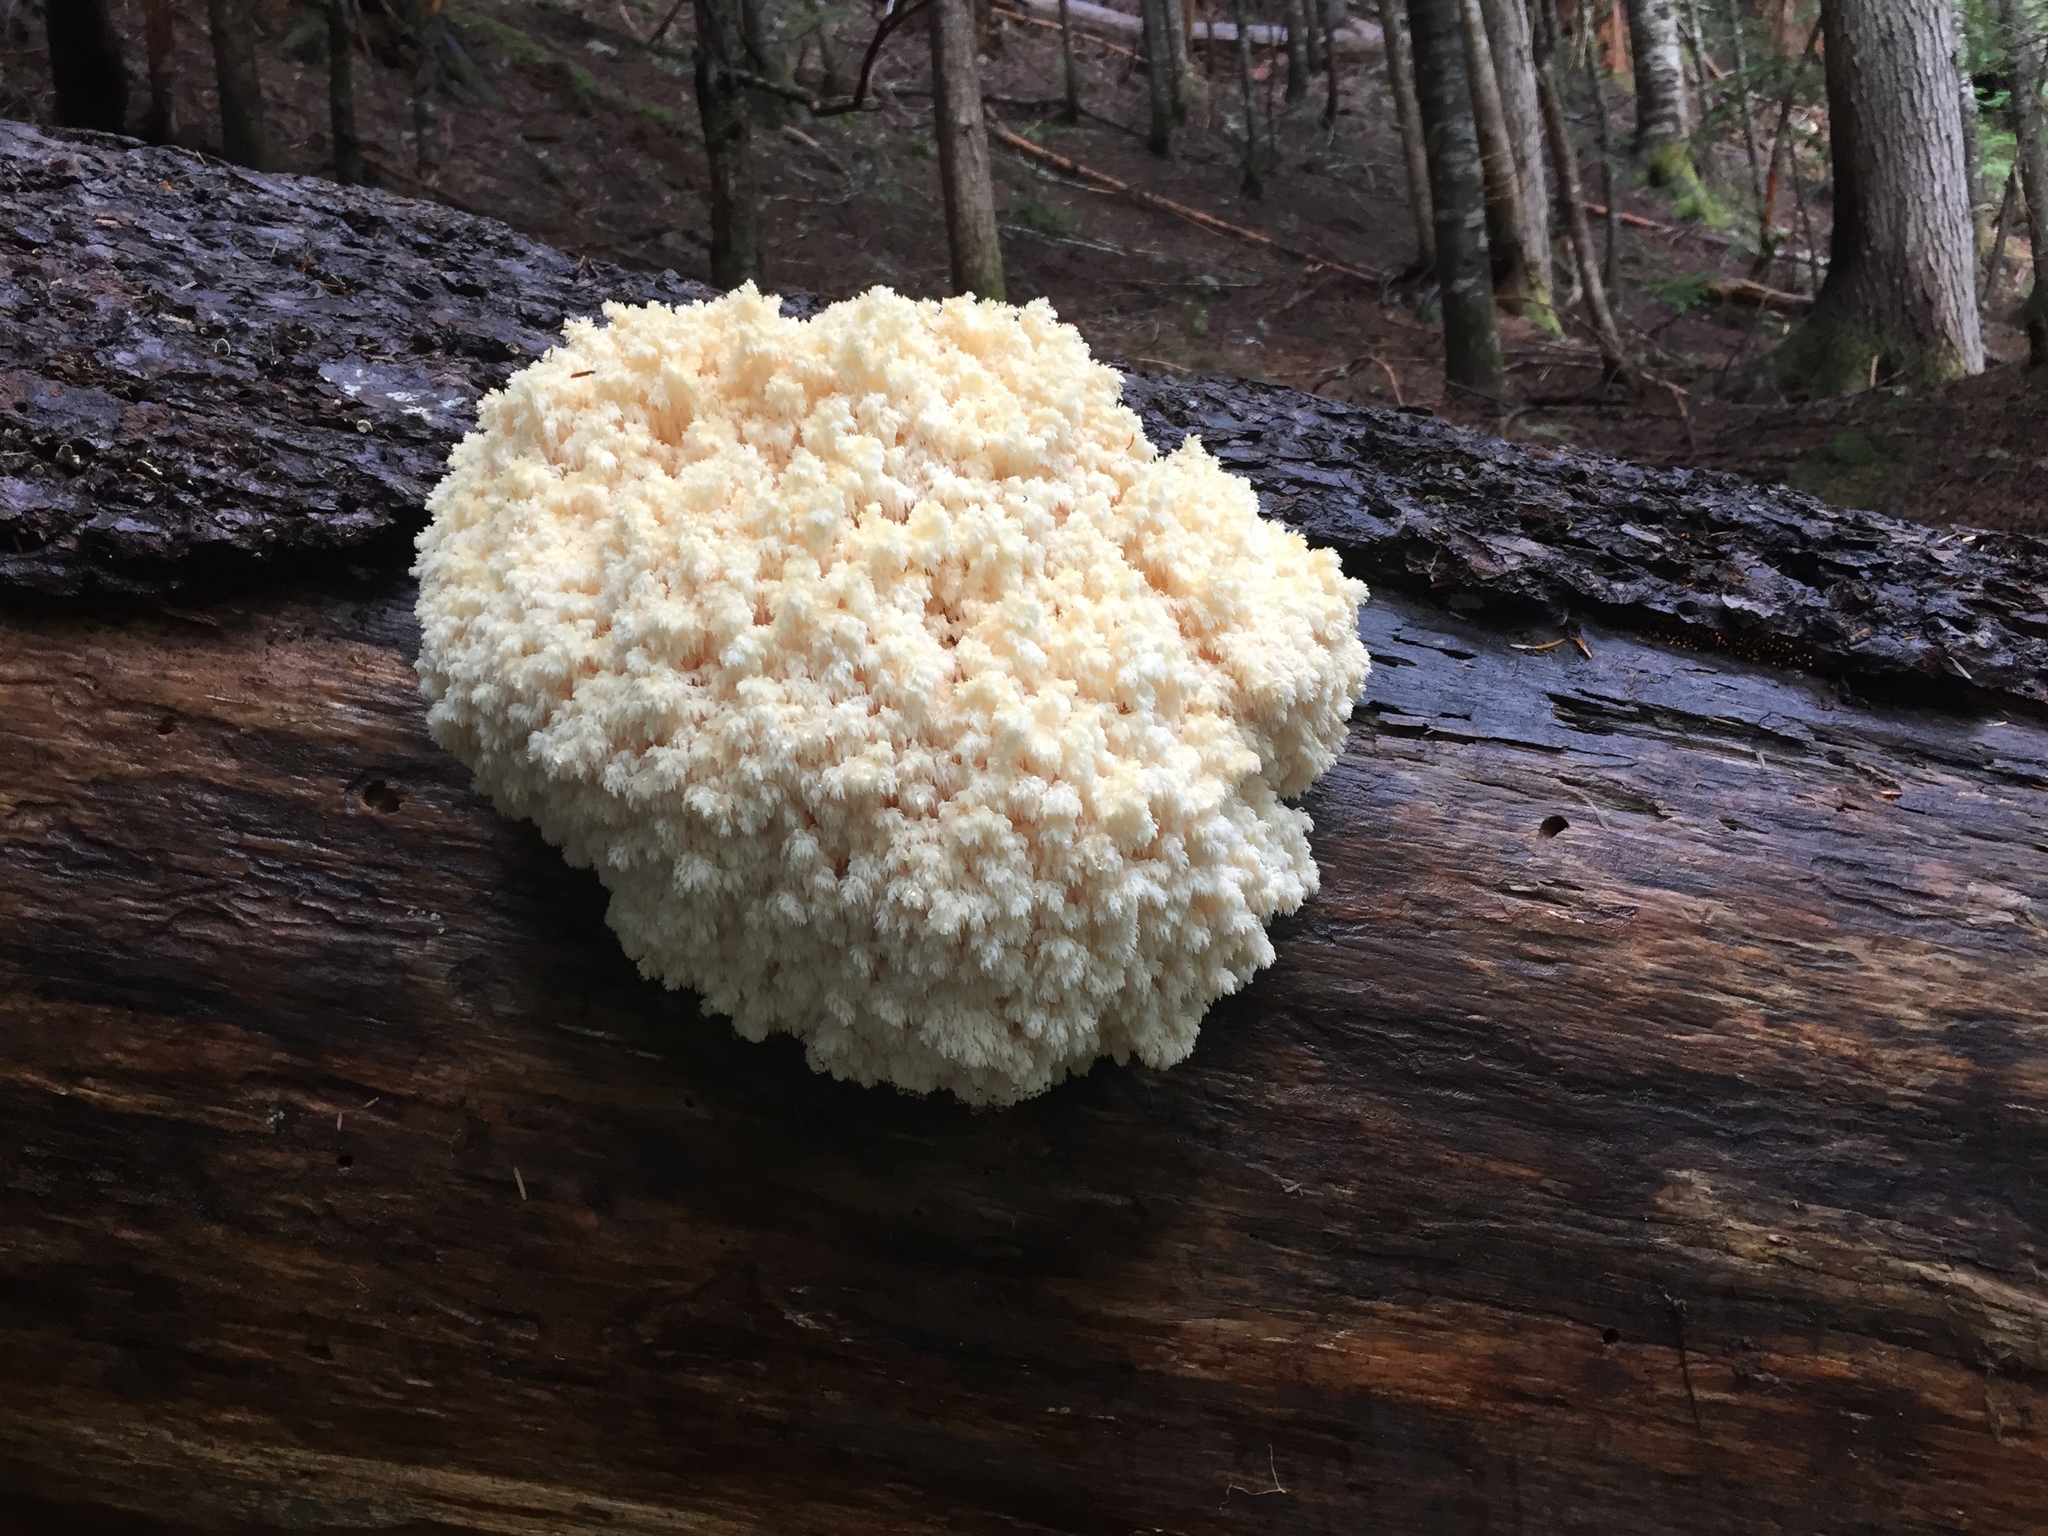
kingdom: Fungi
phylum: Basidiomycota
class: Agaricomycetes
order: Russulales
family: Hericiaceae
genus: Hericium
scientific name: Hericium abietis
